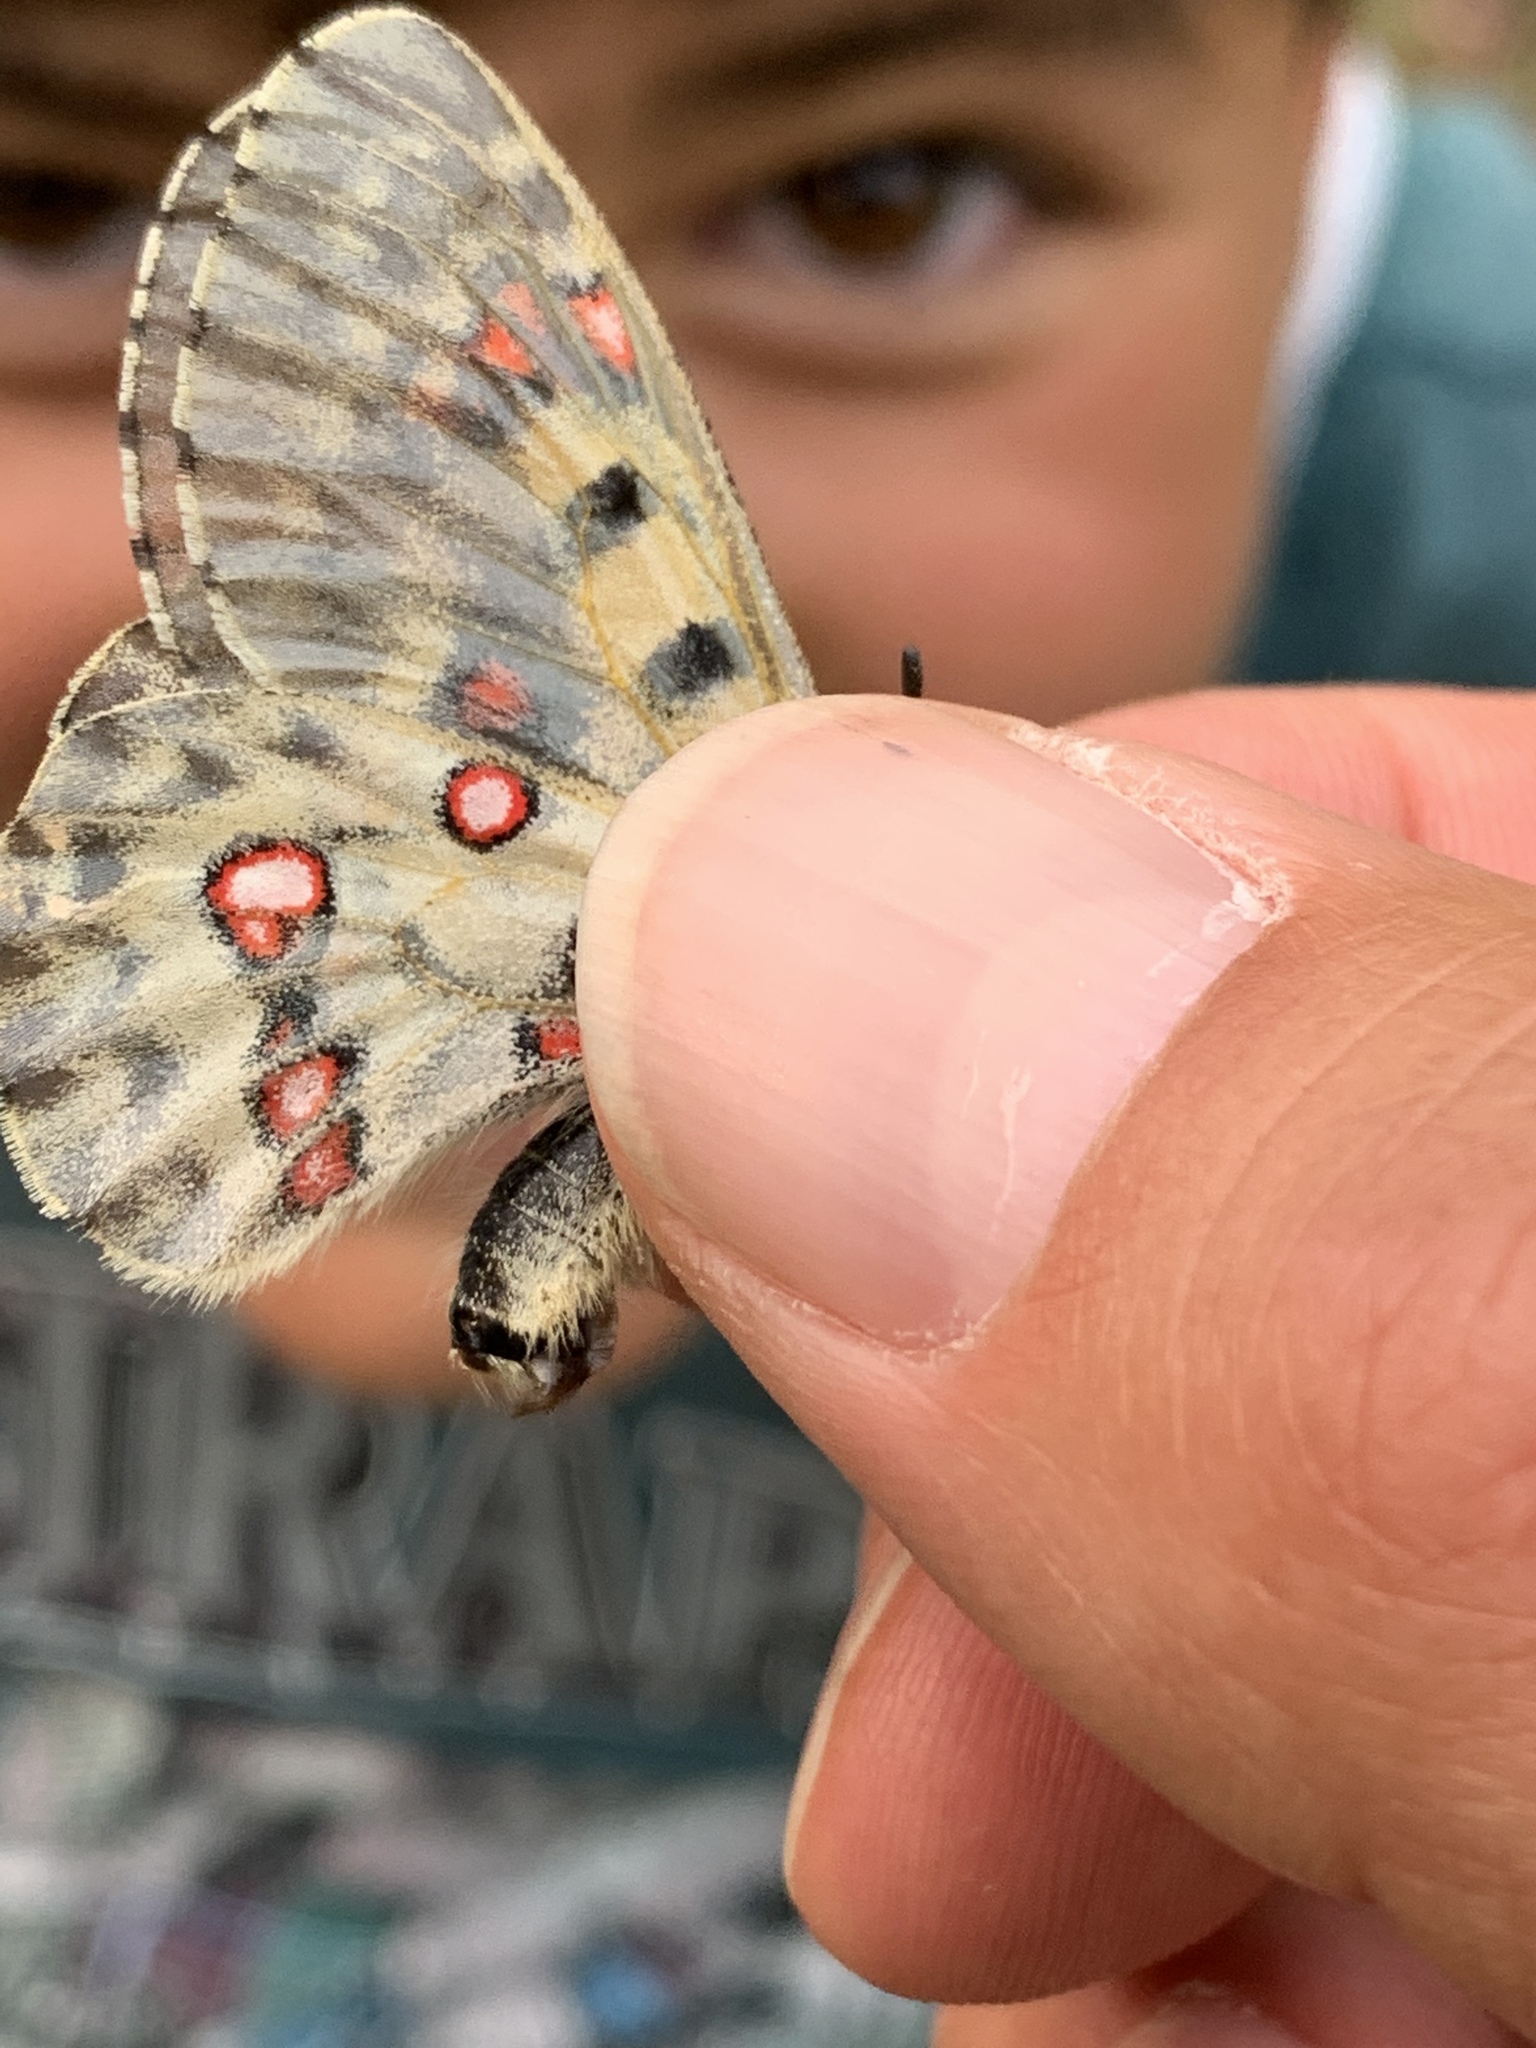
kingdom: Animalia
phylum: Arthropoda
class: Insecta
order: Lepidoptera
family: Papilionidae
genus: Parnassius
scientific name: Parnassius smintheus
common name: Mountain parnassian
